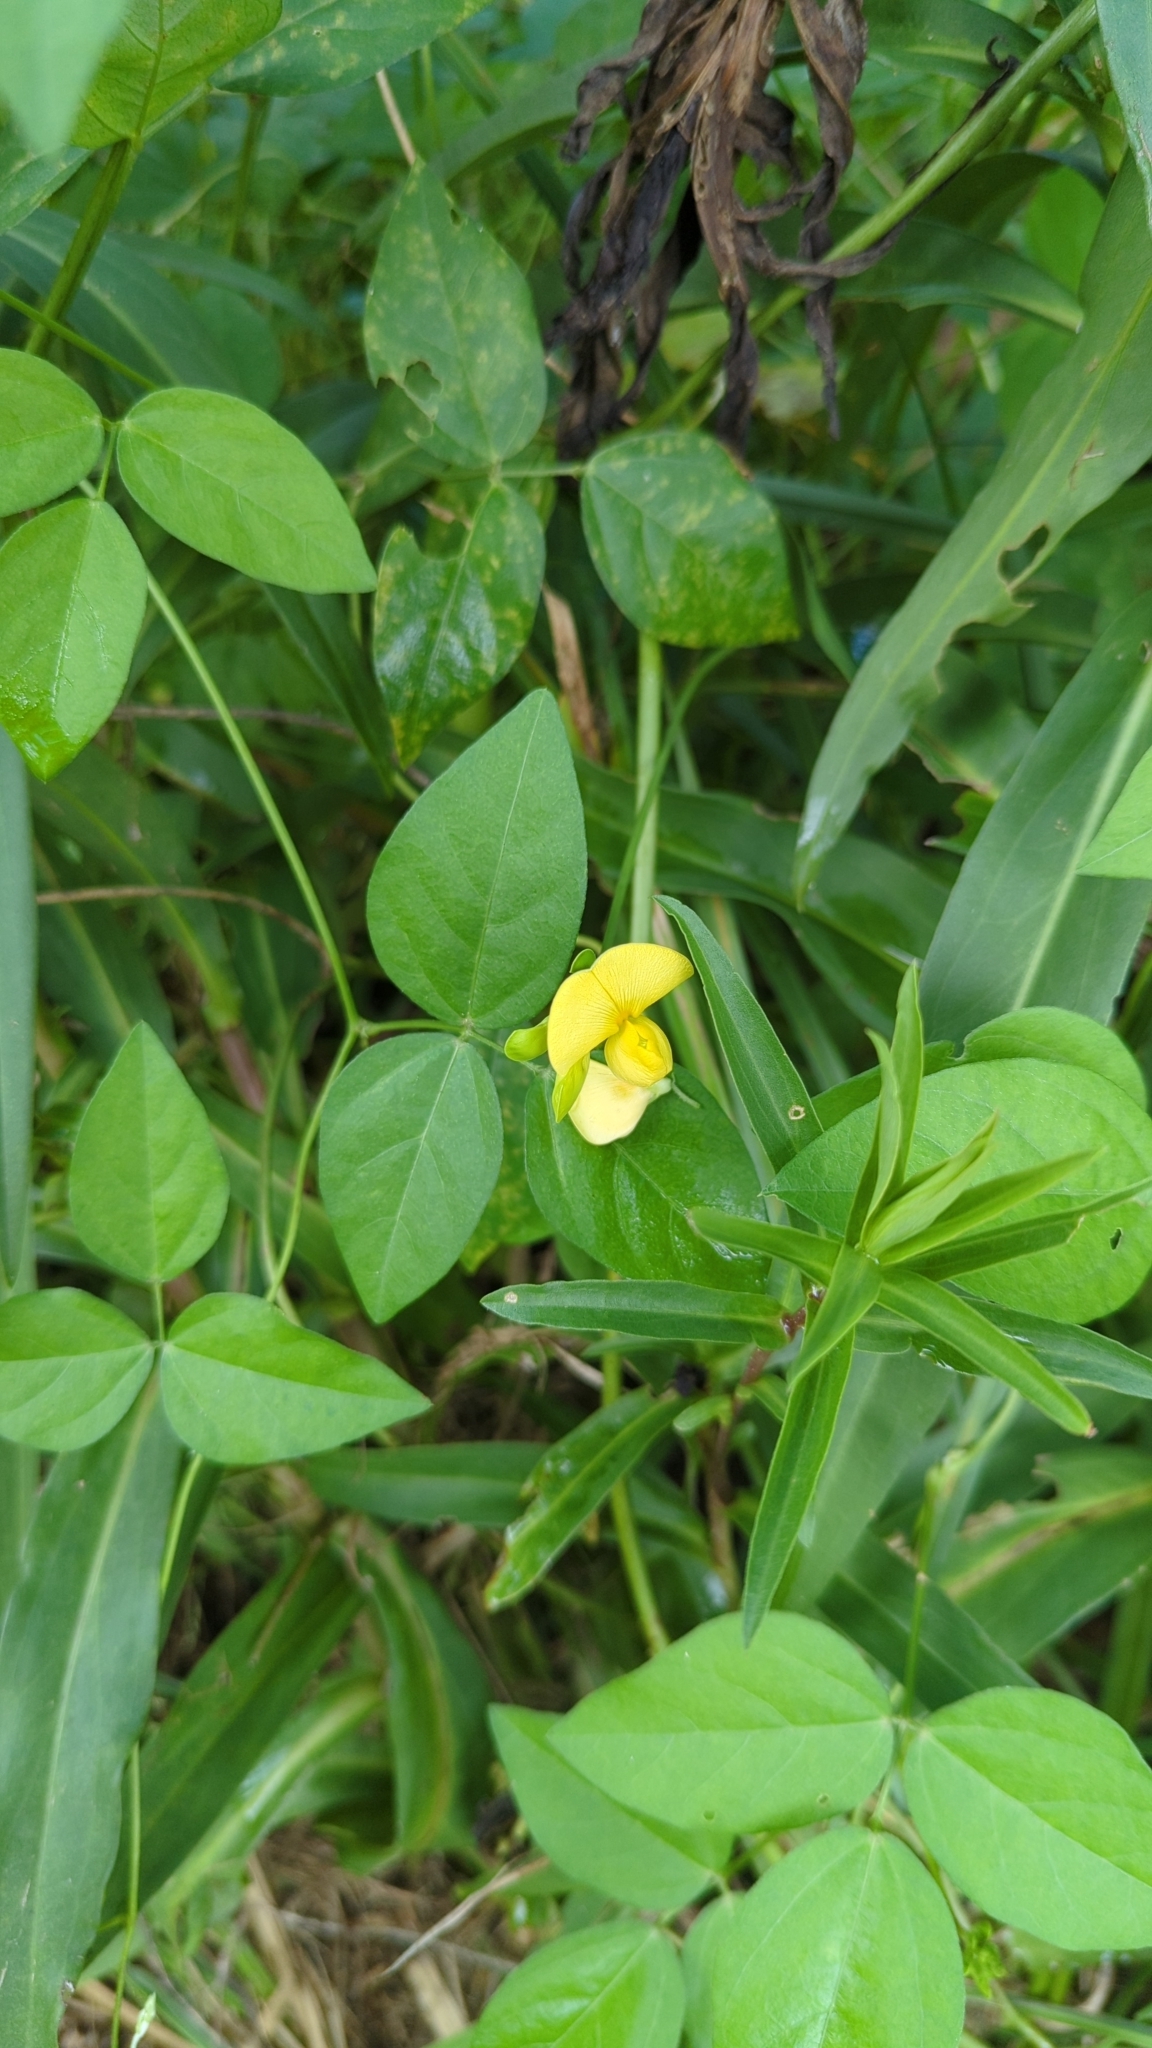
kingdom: Plantae
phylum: Tracheophyta
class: Magnoliopsida
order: Fabales
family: Fabaceae
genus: Vigna
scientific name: Vigna luteola
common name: Hairypod cowpea
